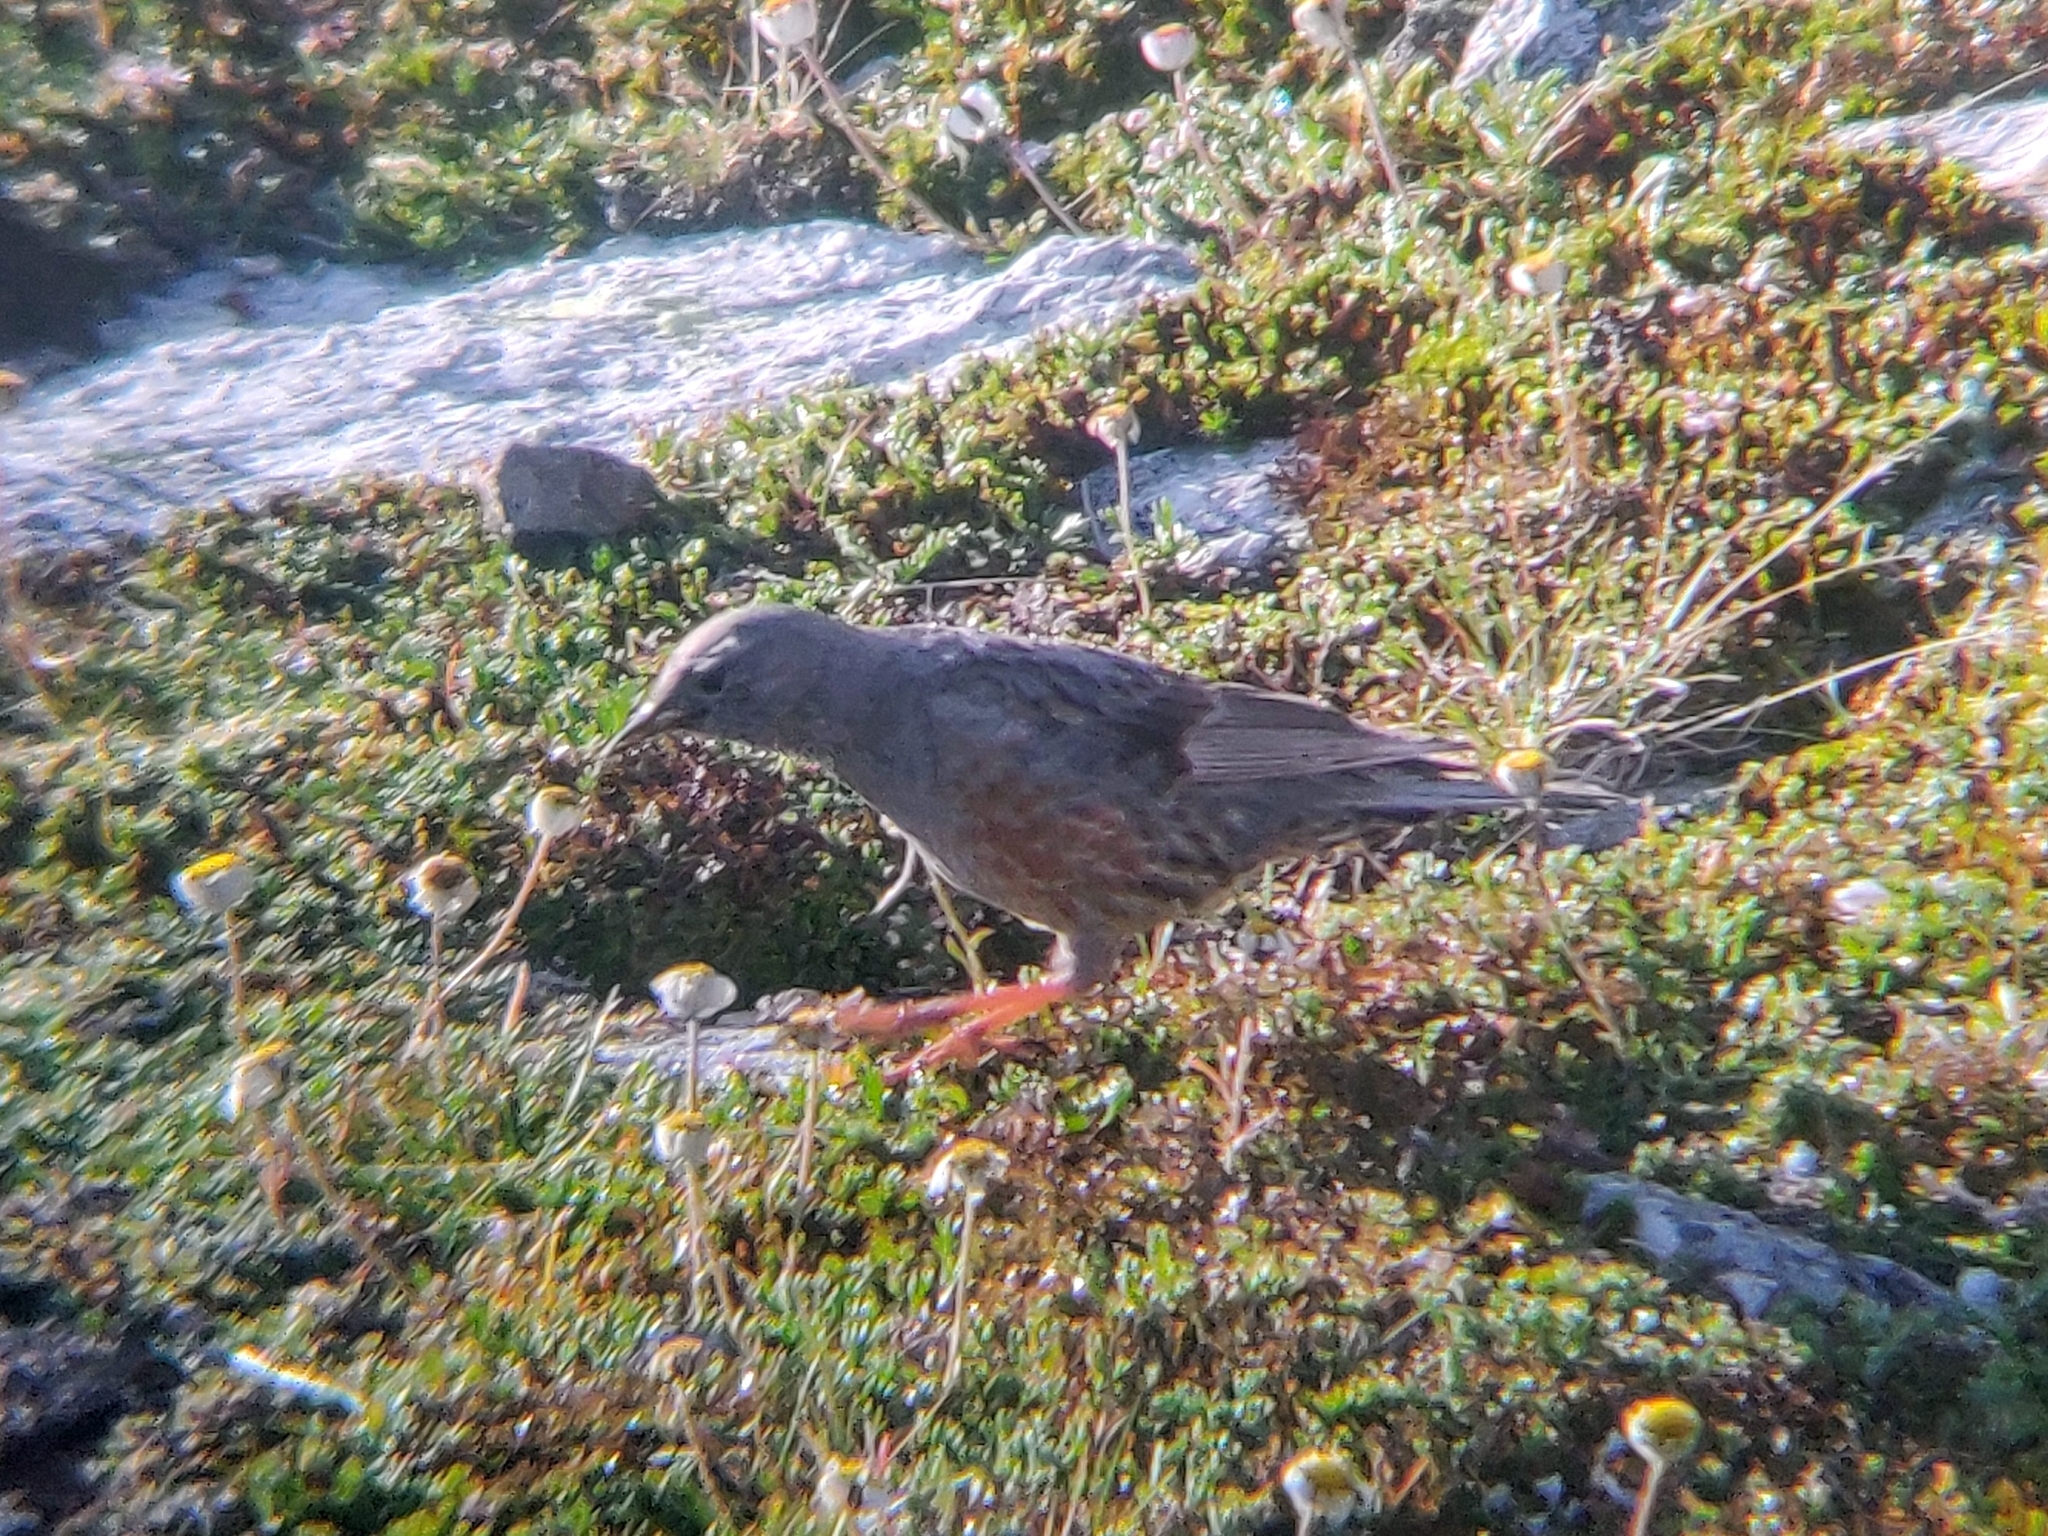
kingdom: Animalia
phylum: Chordata
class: Aves
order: Passeriformes
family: Prunellidae
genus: Prunella
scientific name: Prunella collaris
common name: Alpine accentor
